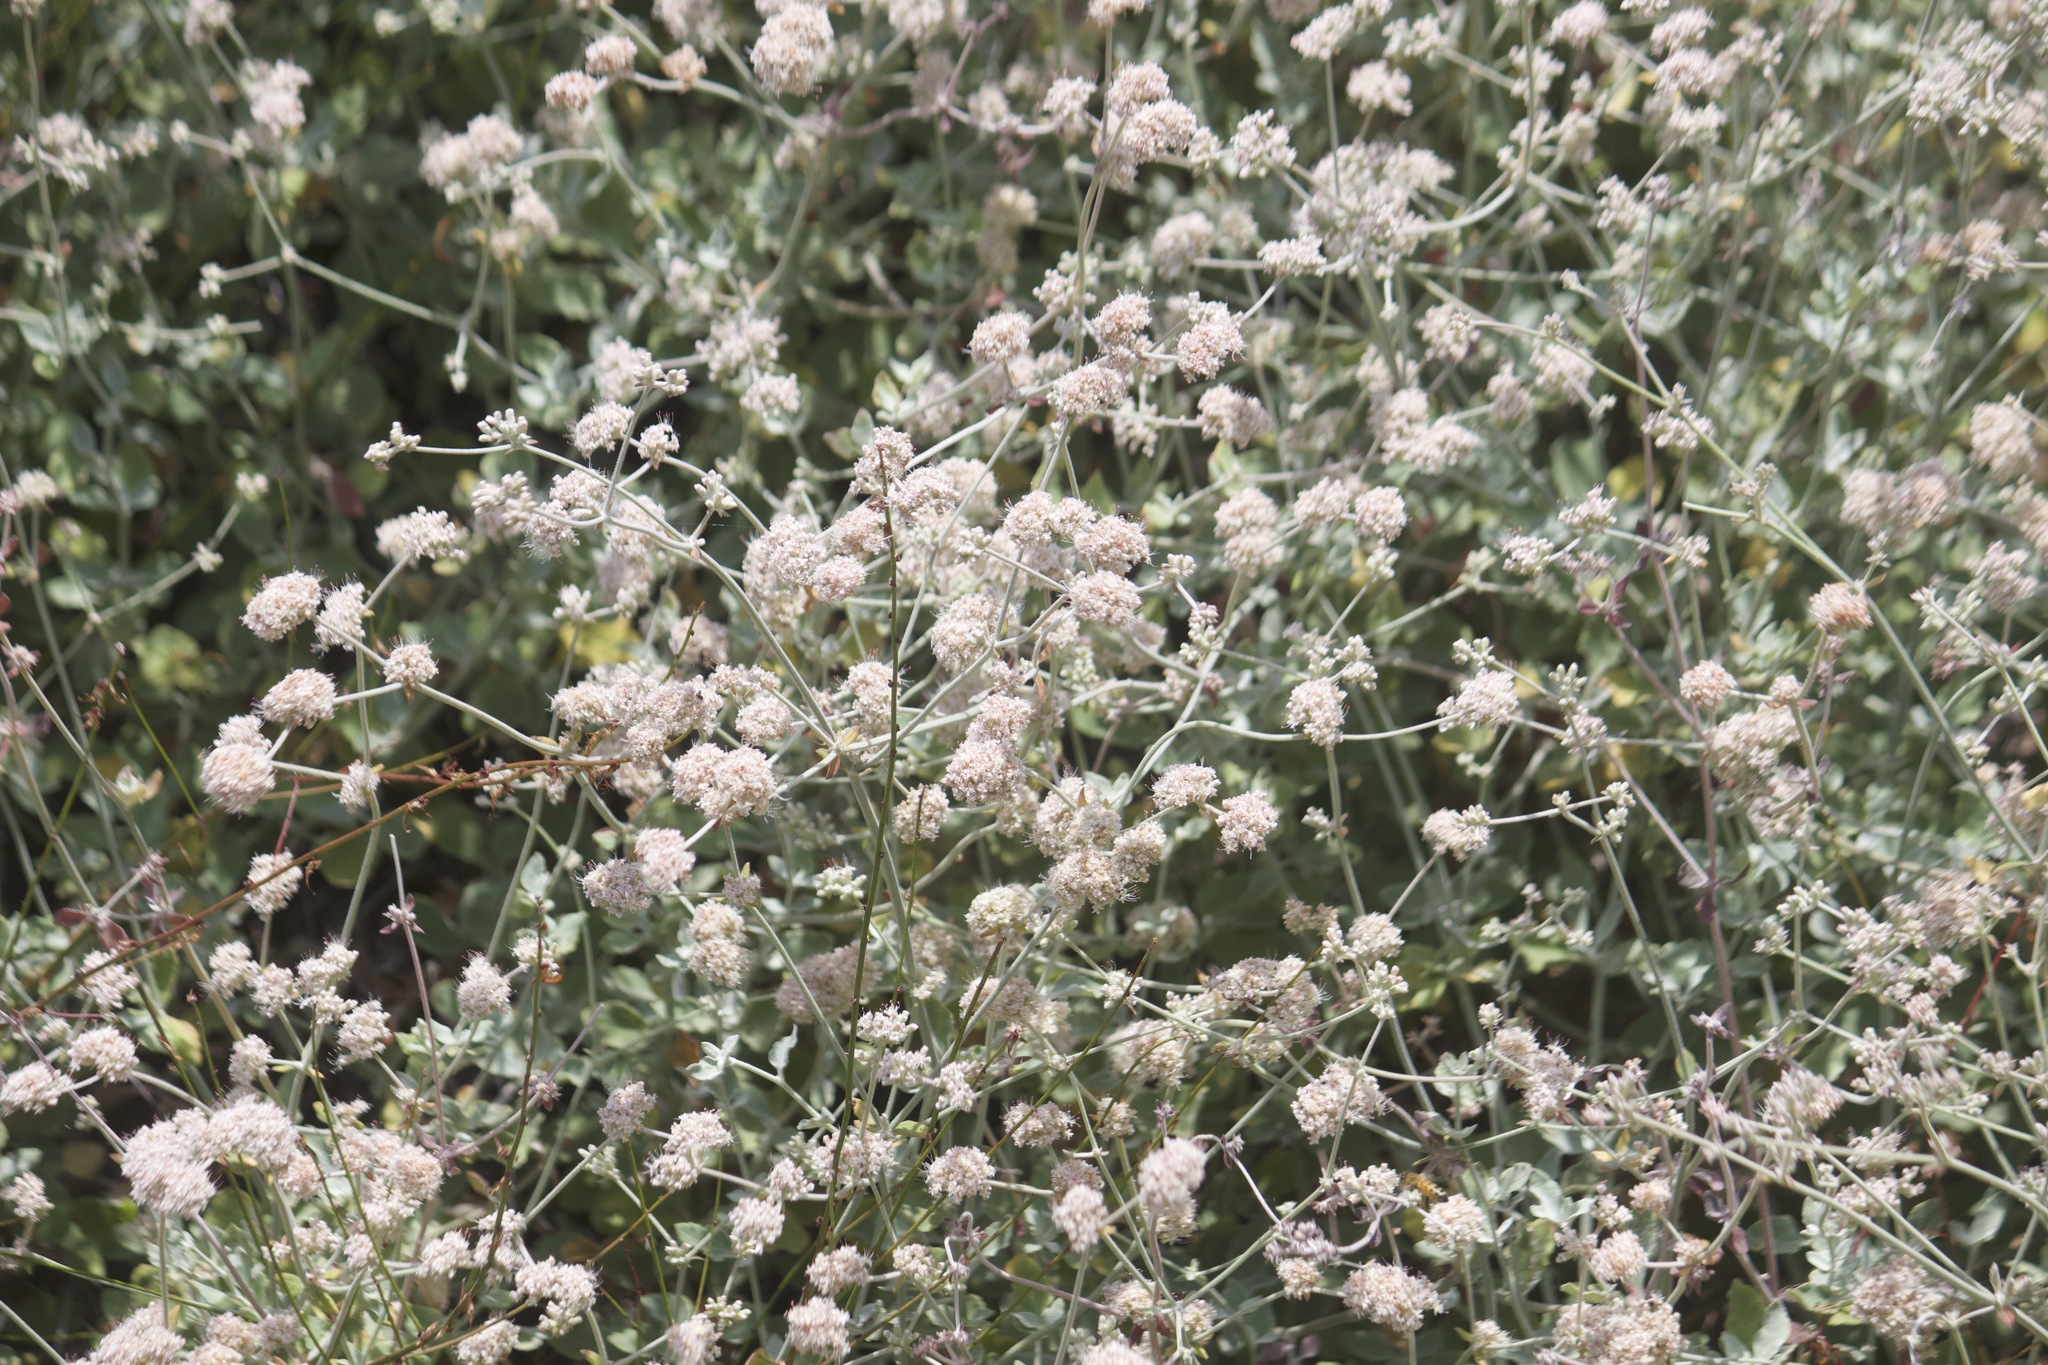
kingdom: Plantae
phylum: Tracheophyta
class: Magnoliopsida
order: Caryophyllales
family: Polygonaceae
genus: Eriogonum
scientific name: Eriogonum cinereum
